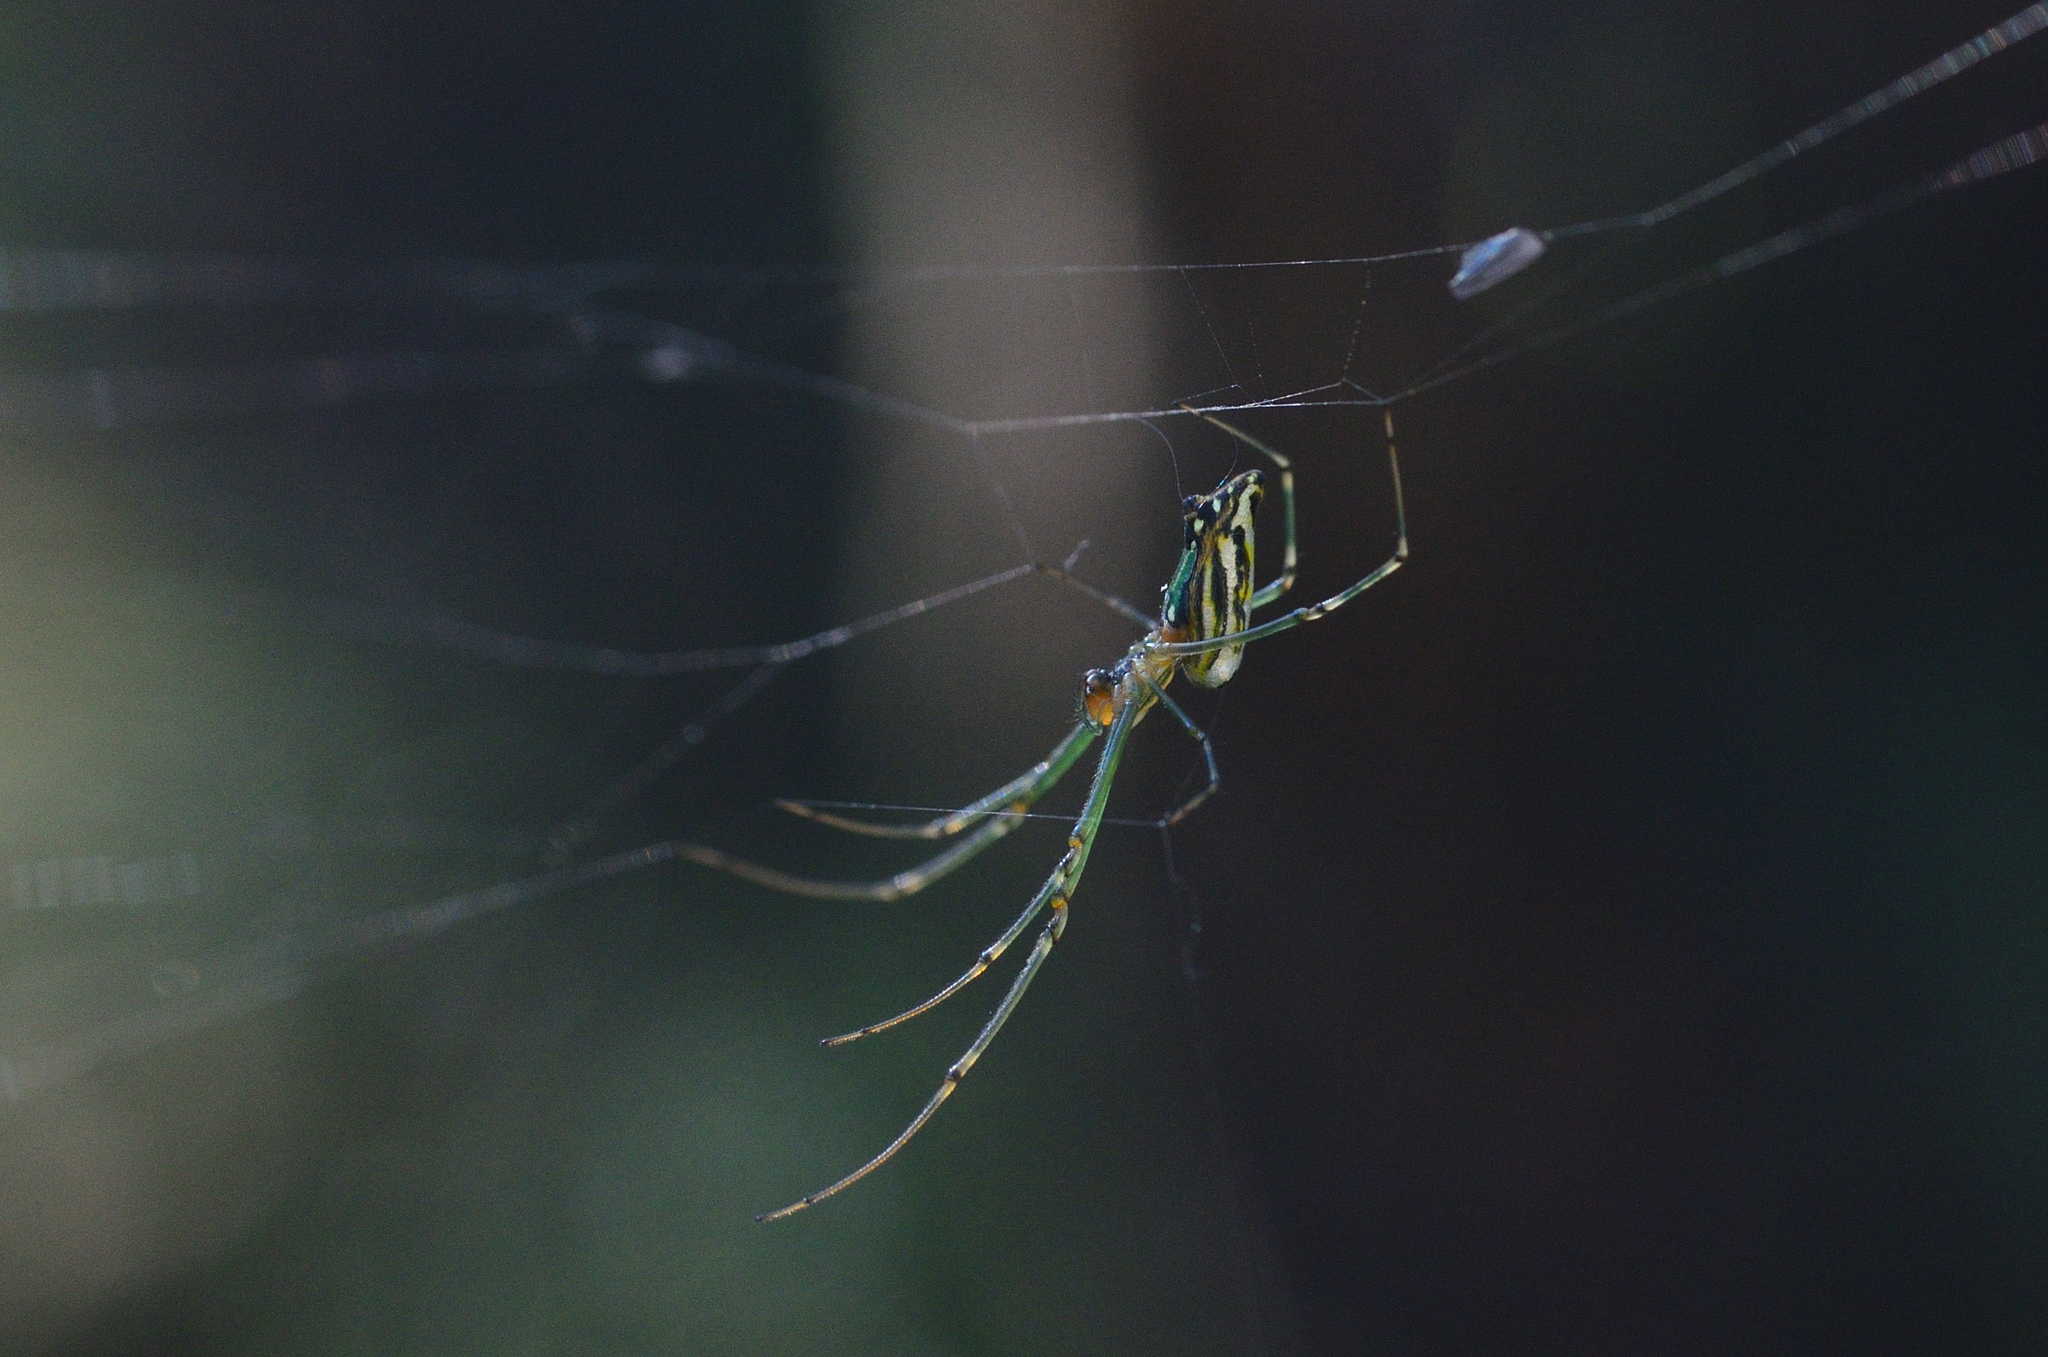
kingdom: Animalia
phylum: Arthropoda
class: Arachnida
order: Araneae
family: Tetragnathidae
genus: Leucauge
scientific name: Leucauge decorata
